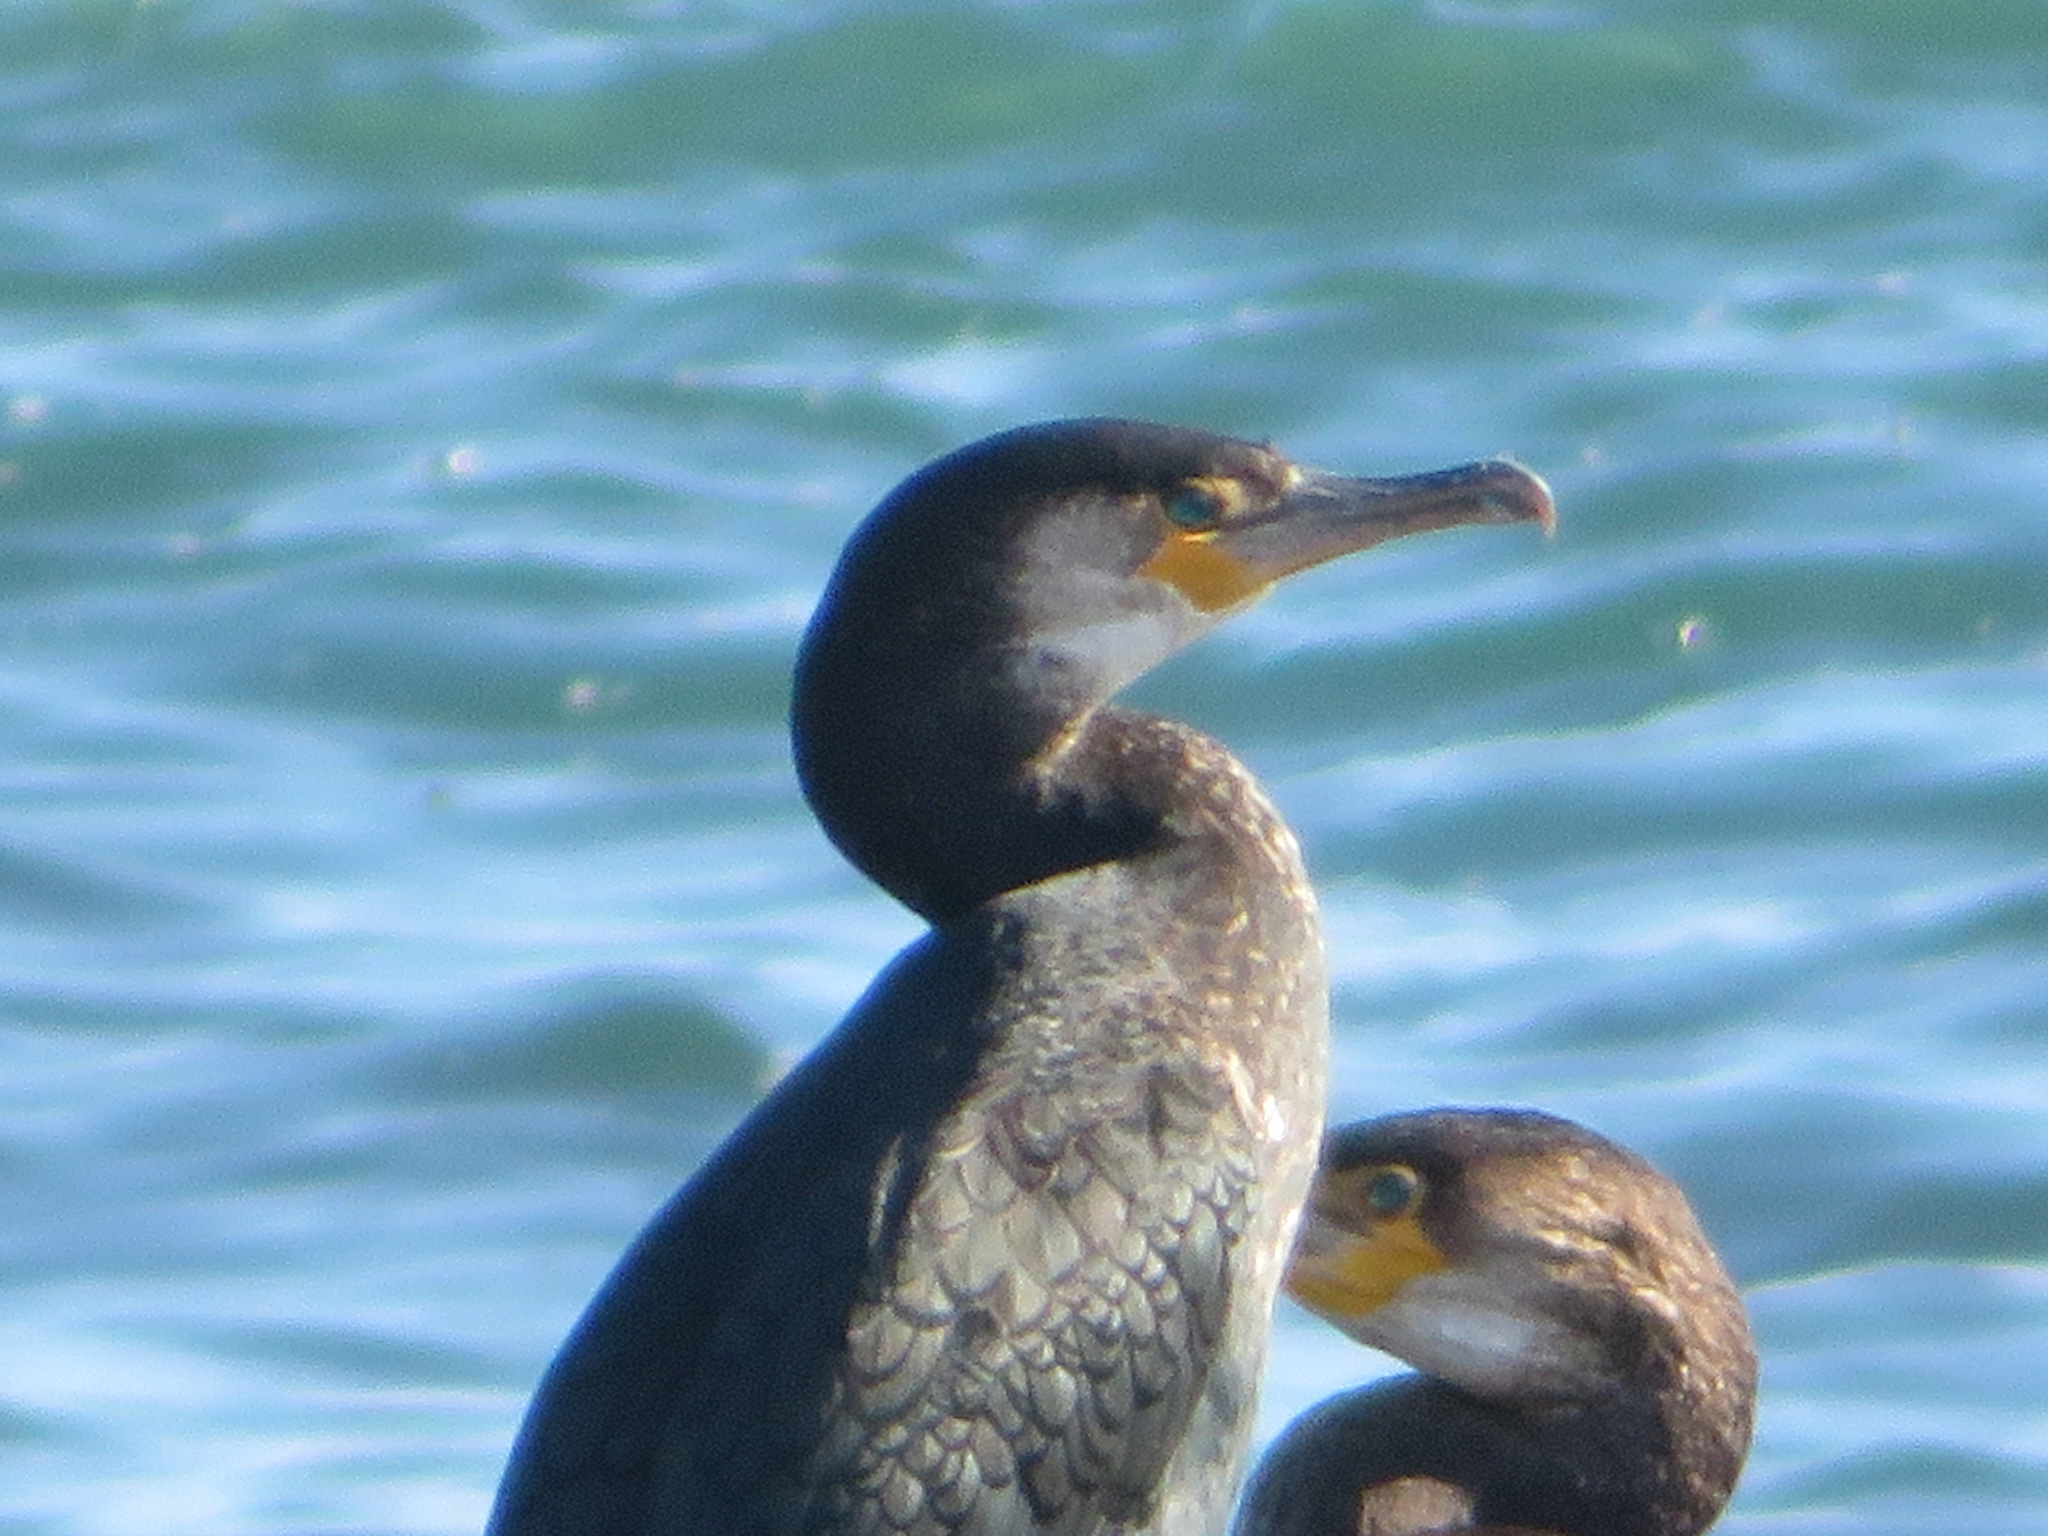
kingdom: Animalia
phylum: Chordata
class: Aves
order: Suliformes
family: Phalacrocoracidae
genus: Phalacrocorax
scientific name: Phalacrocorax capillatus
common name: Japanese cormorant
